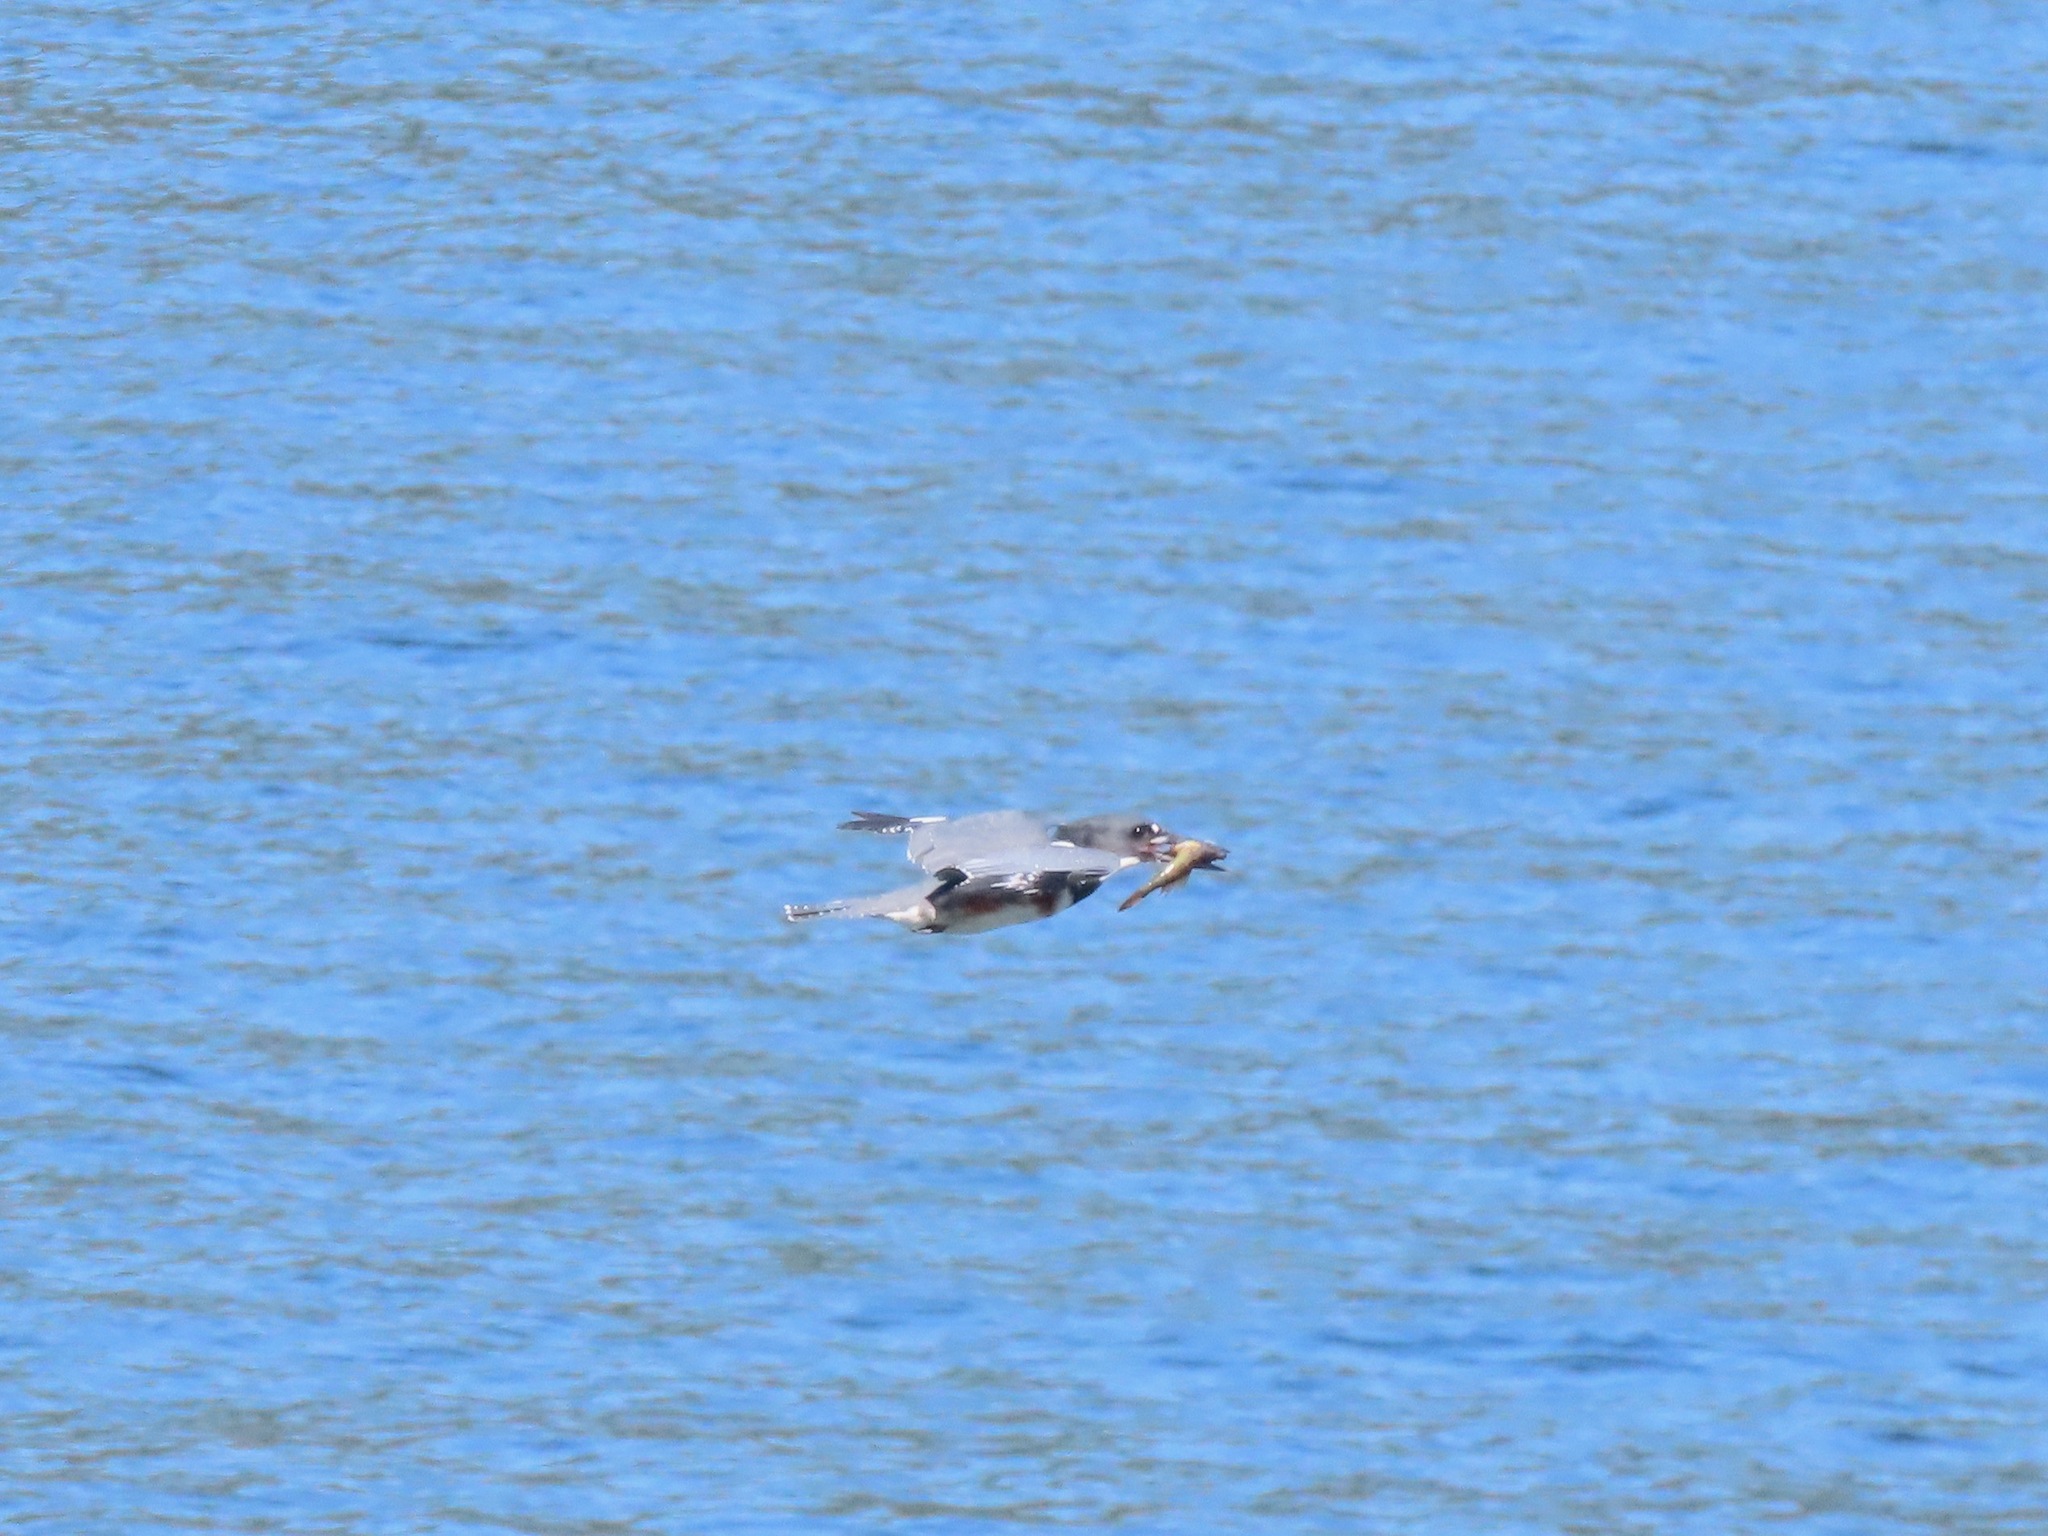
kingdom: Animalia
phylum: Chordata
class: Aves
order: Coraciiformes
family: Alcedinidae
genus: Megaceryle
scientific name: Megaceryle alcyon
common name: Belted kingfisher
